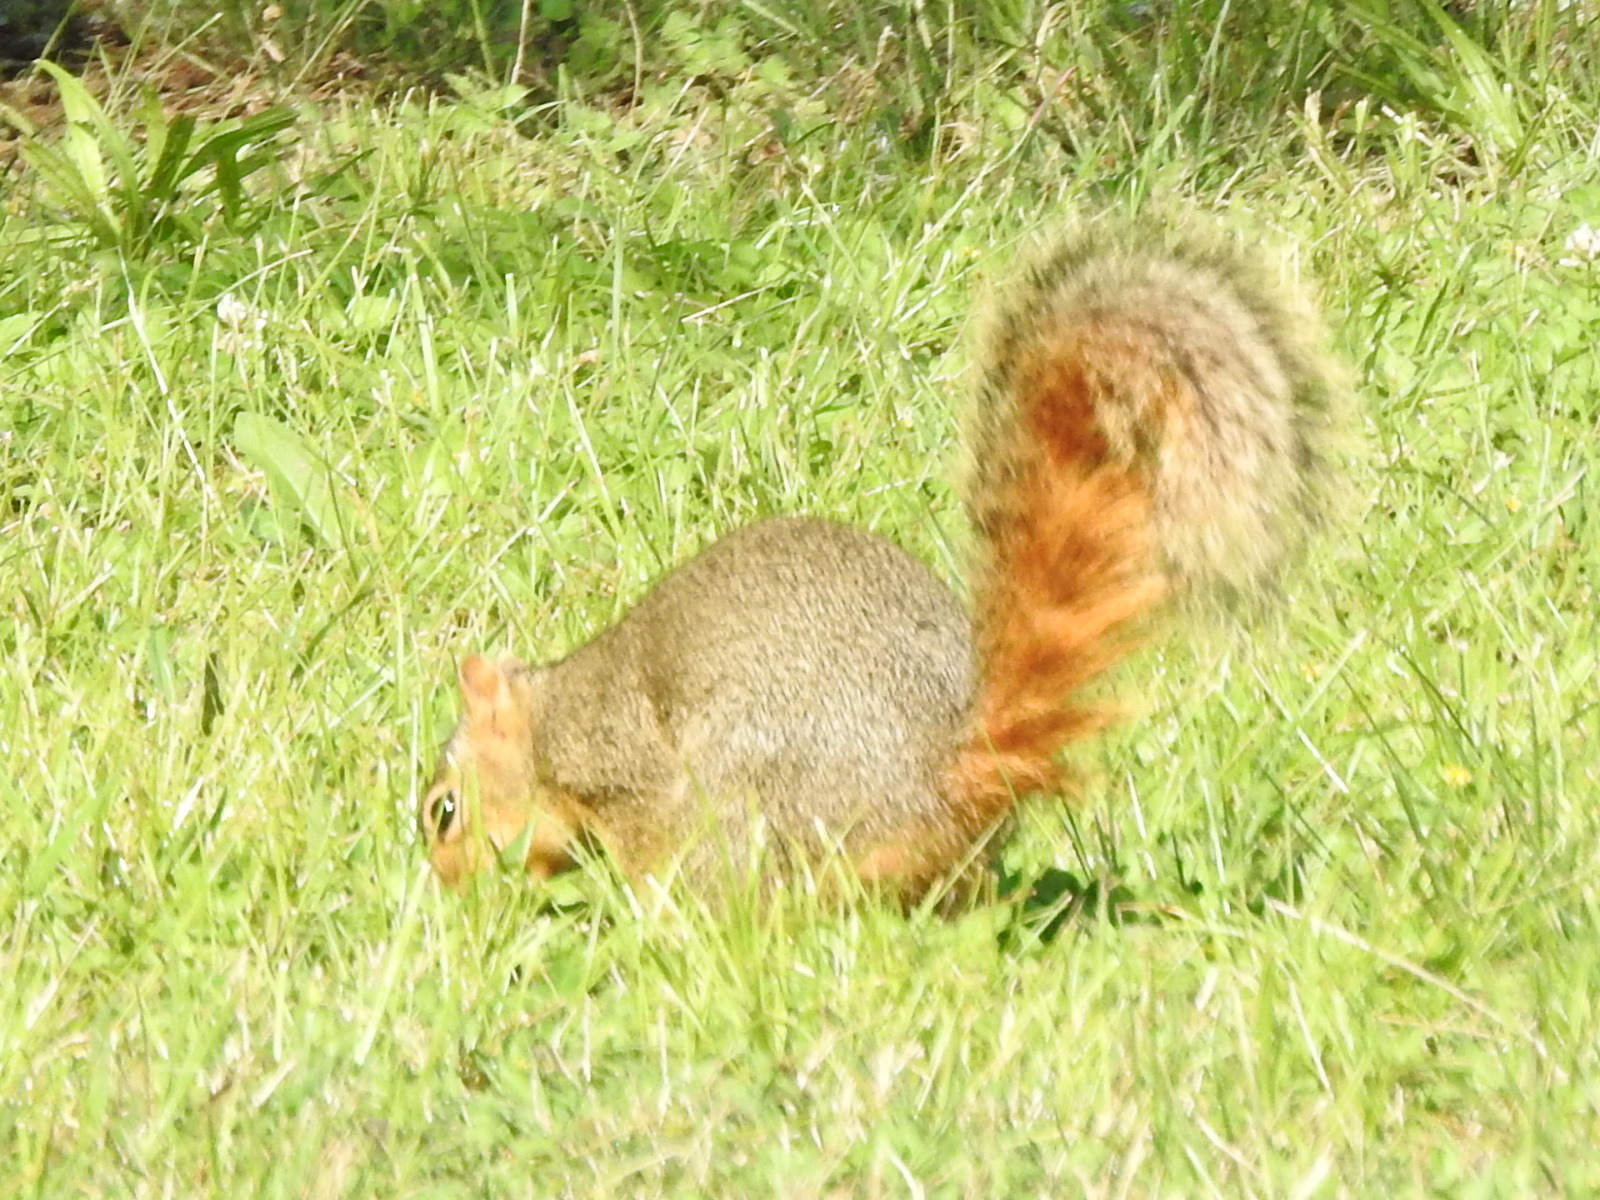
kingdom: Animalia
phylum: Chordata
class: Mammalia
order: Rodentia
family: Sciuridae
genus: Sciurus
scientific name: Sciurus niger
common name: Fox squirrel
